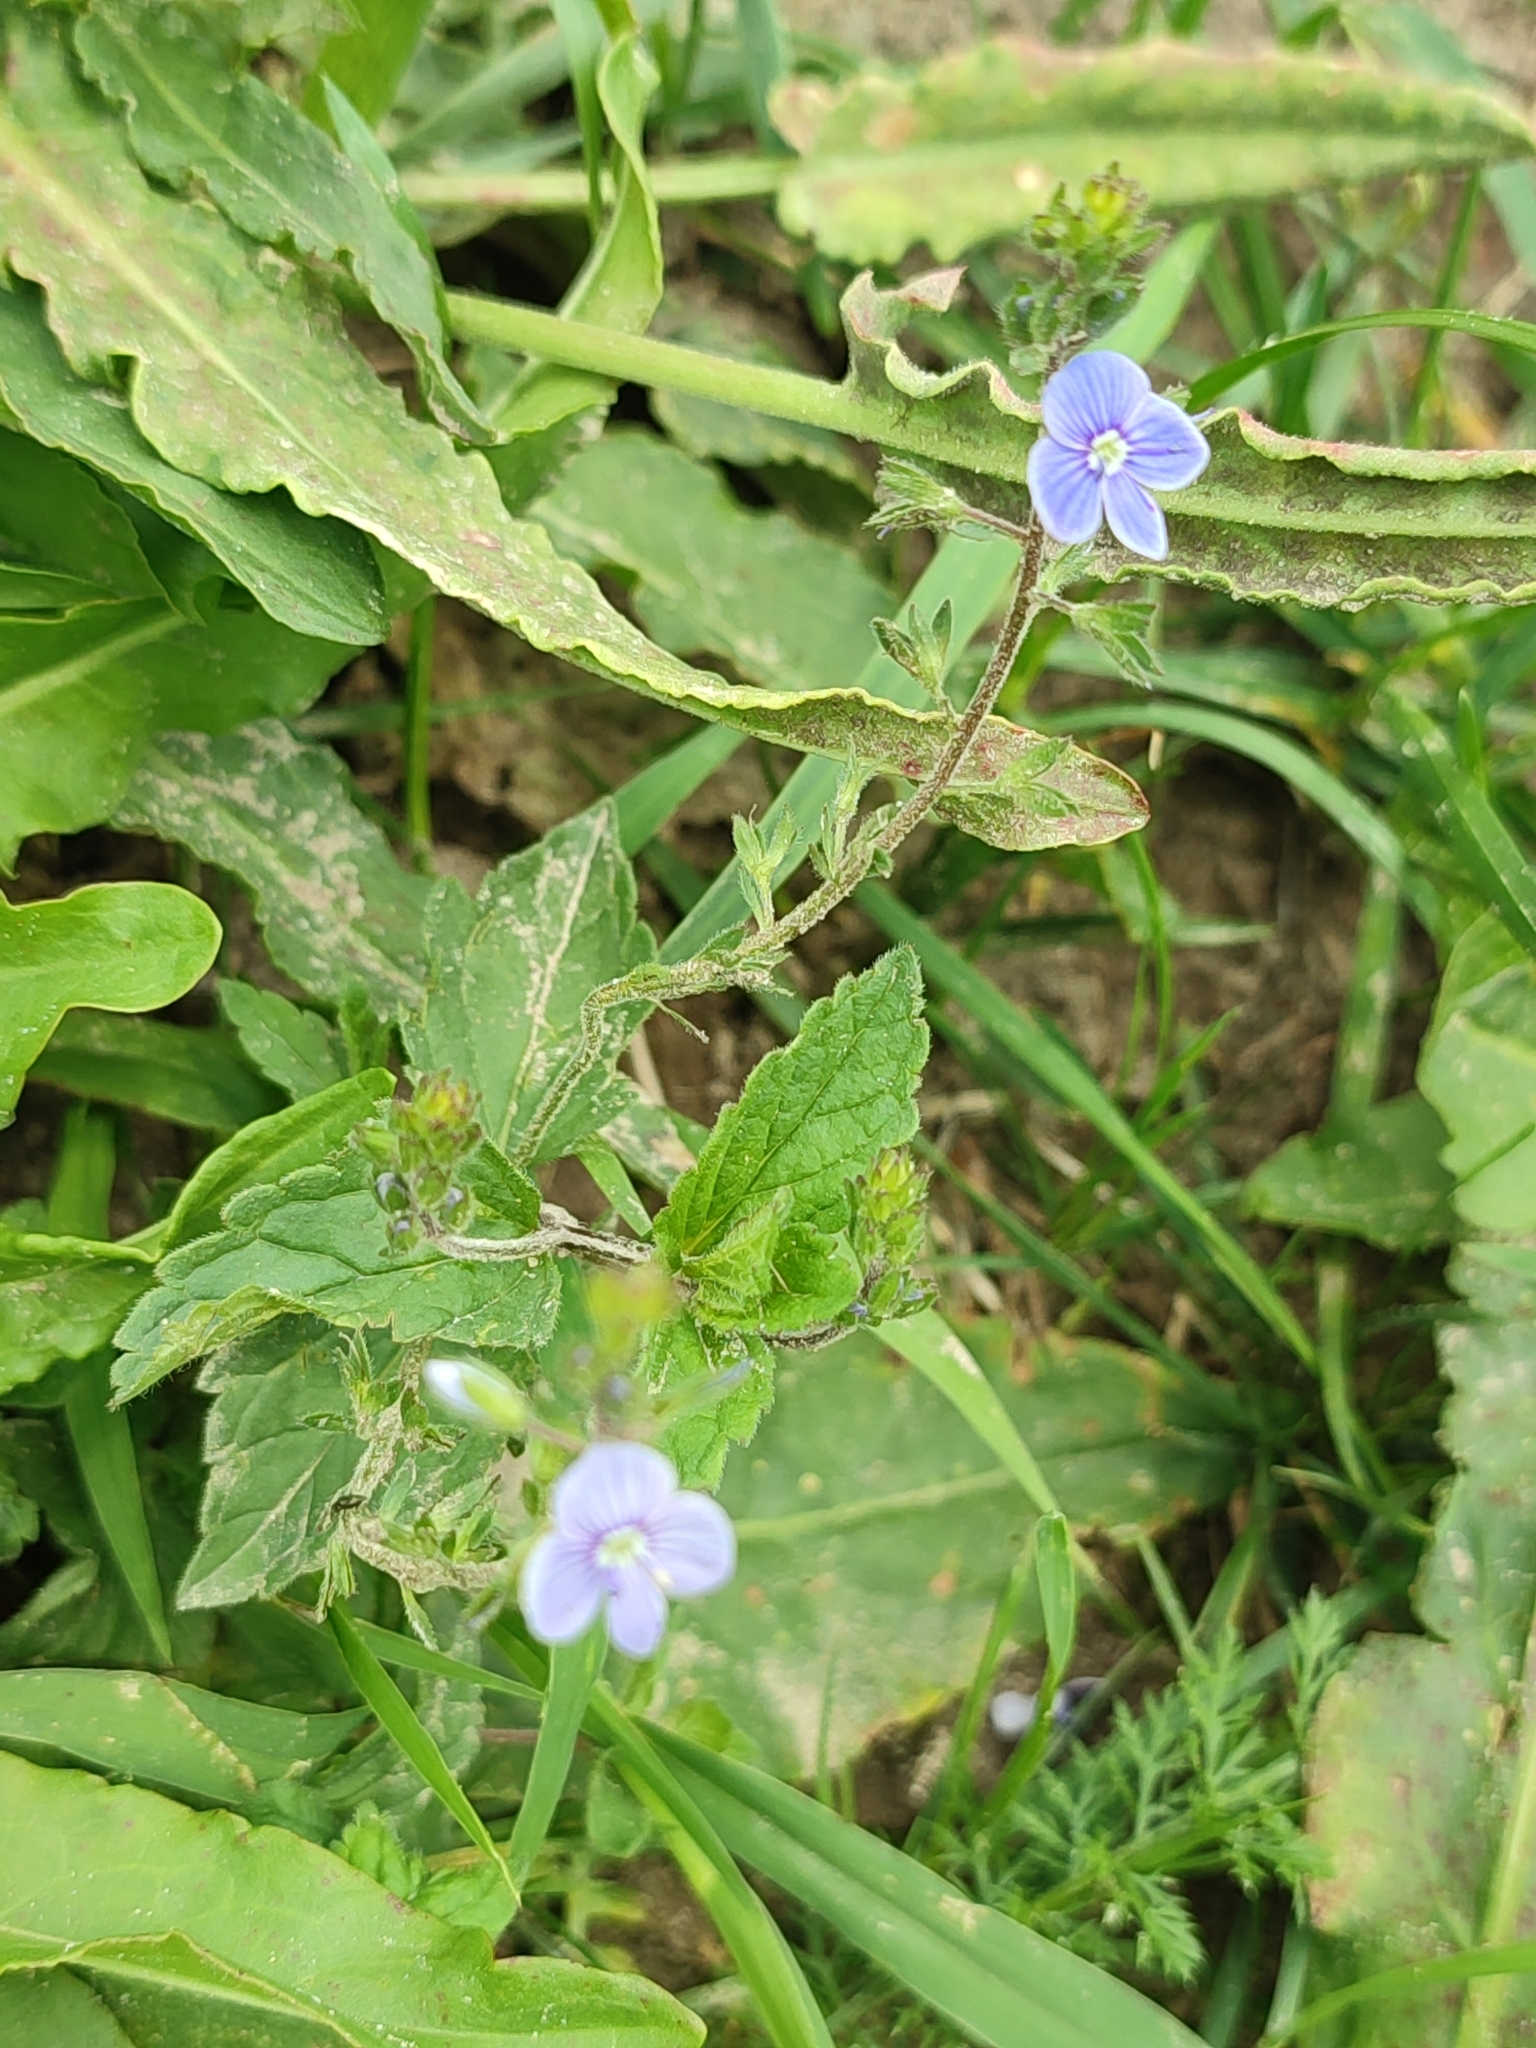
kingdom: Plantae
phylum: Tracheophyta
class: Magnoliopsida
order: Lamiales
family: Plantaginaceae
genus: Veronica
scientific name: Veronica chamaedrys
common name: Germander speedwell
